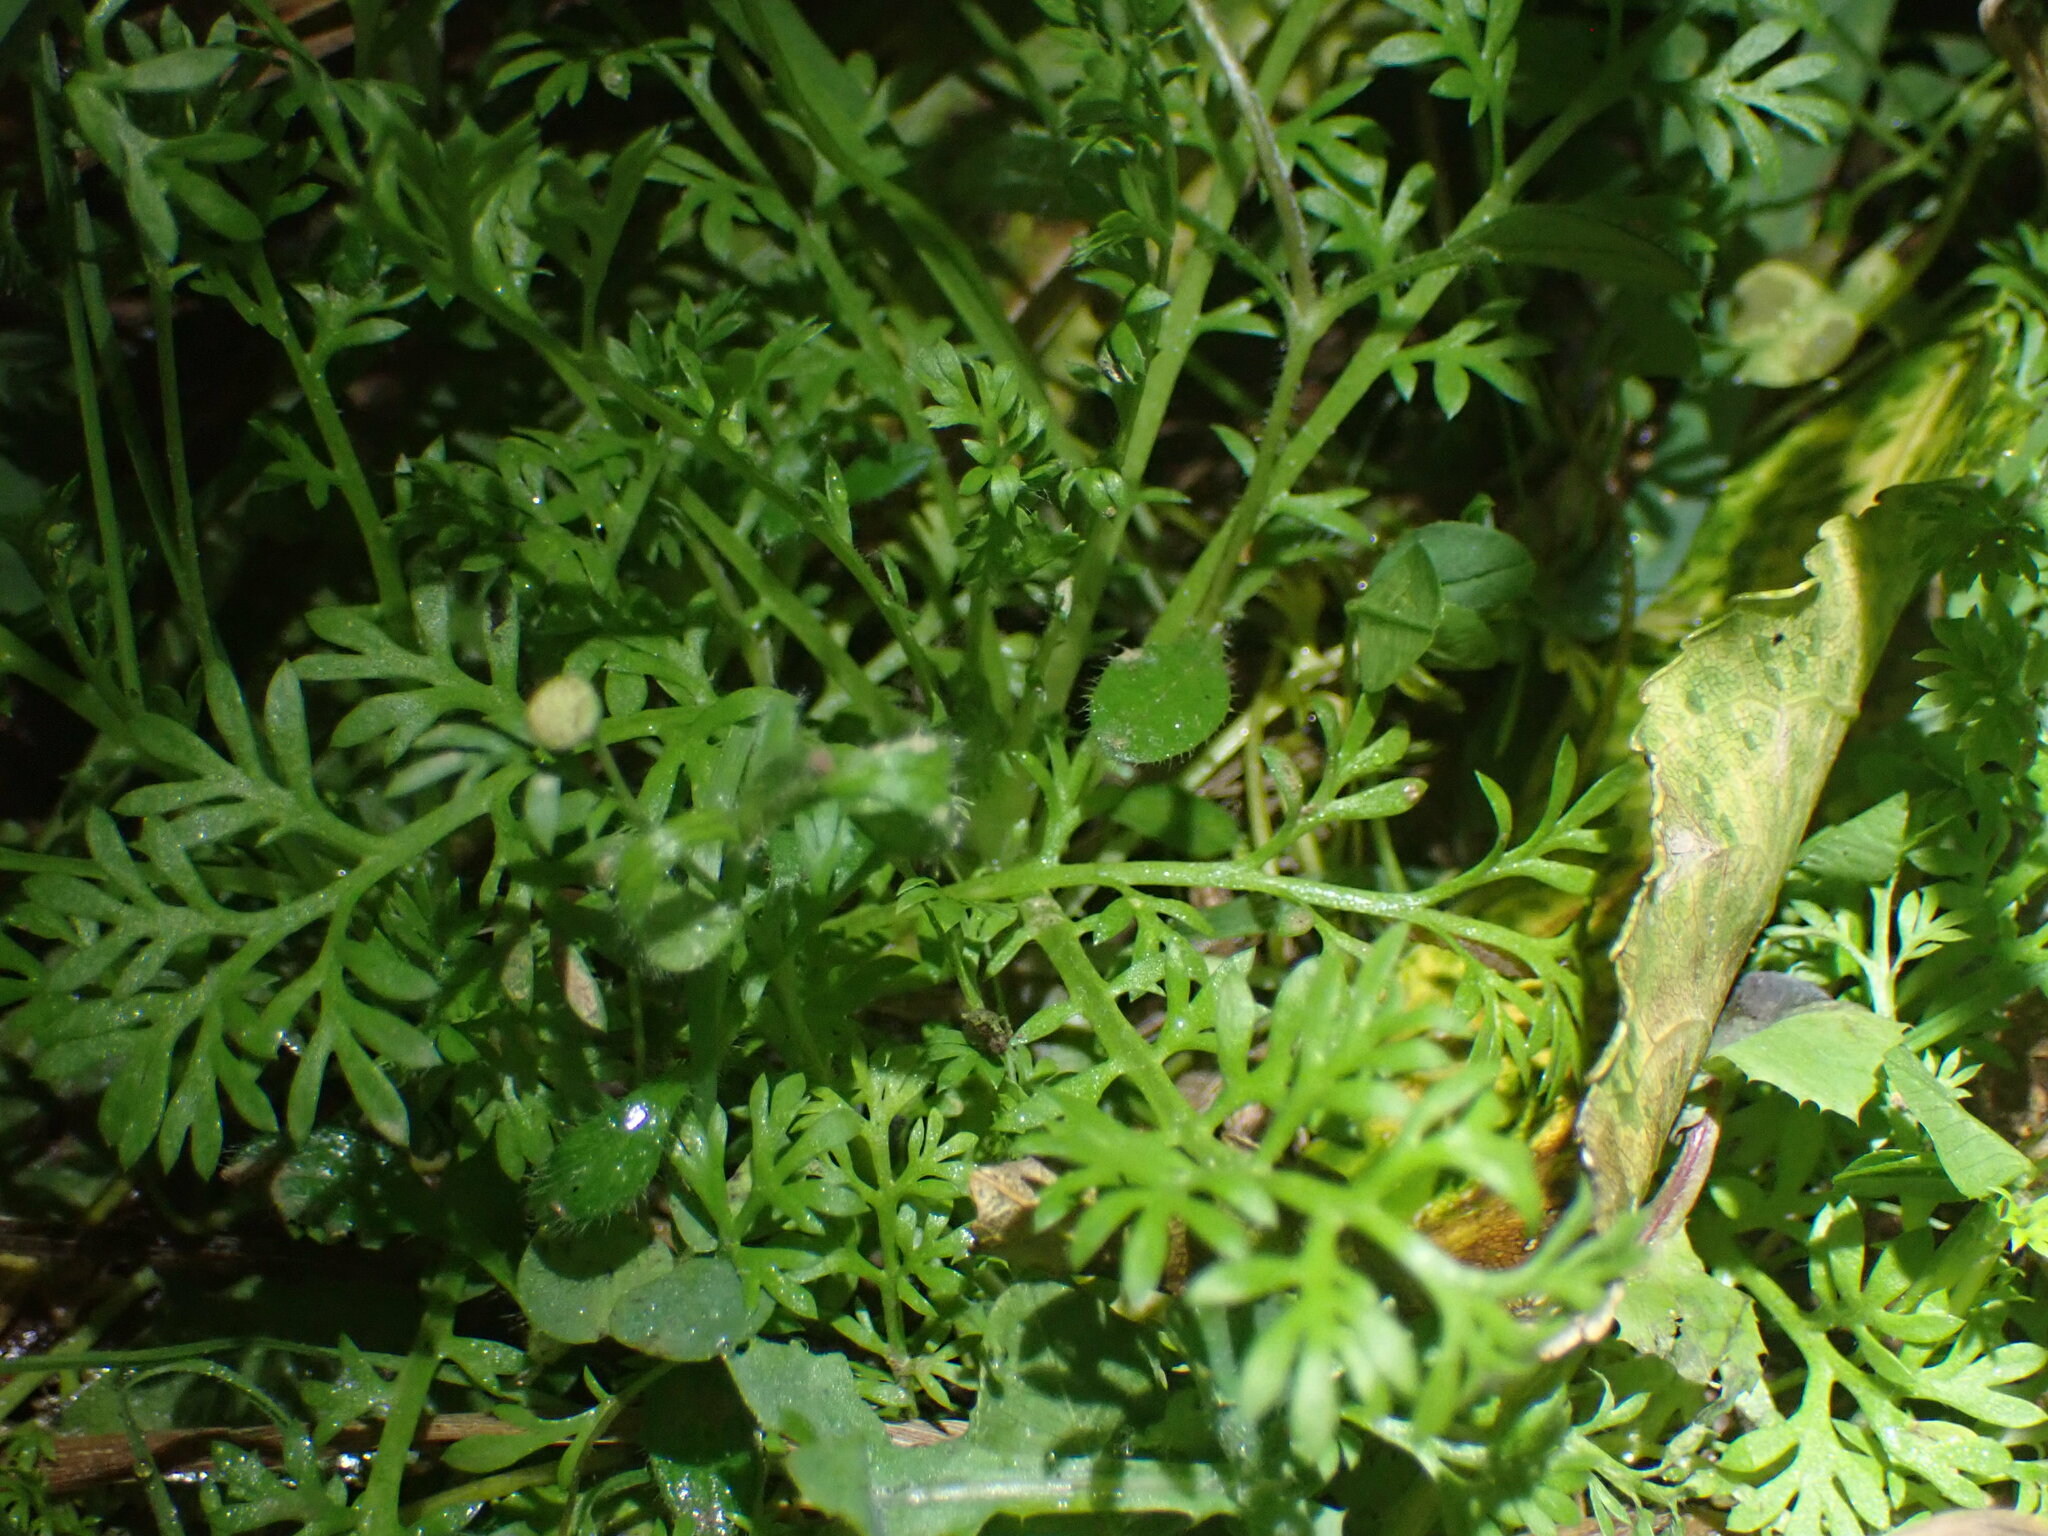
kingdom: Plantae
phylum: Tracheophyta
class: Magnoliopsida
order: Asterales
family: Asteraceae
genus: Cotula
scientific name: Cotula australis
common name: Australian waterbuttons
